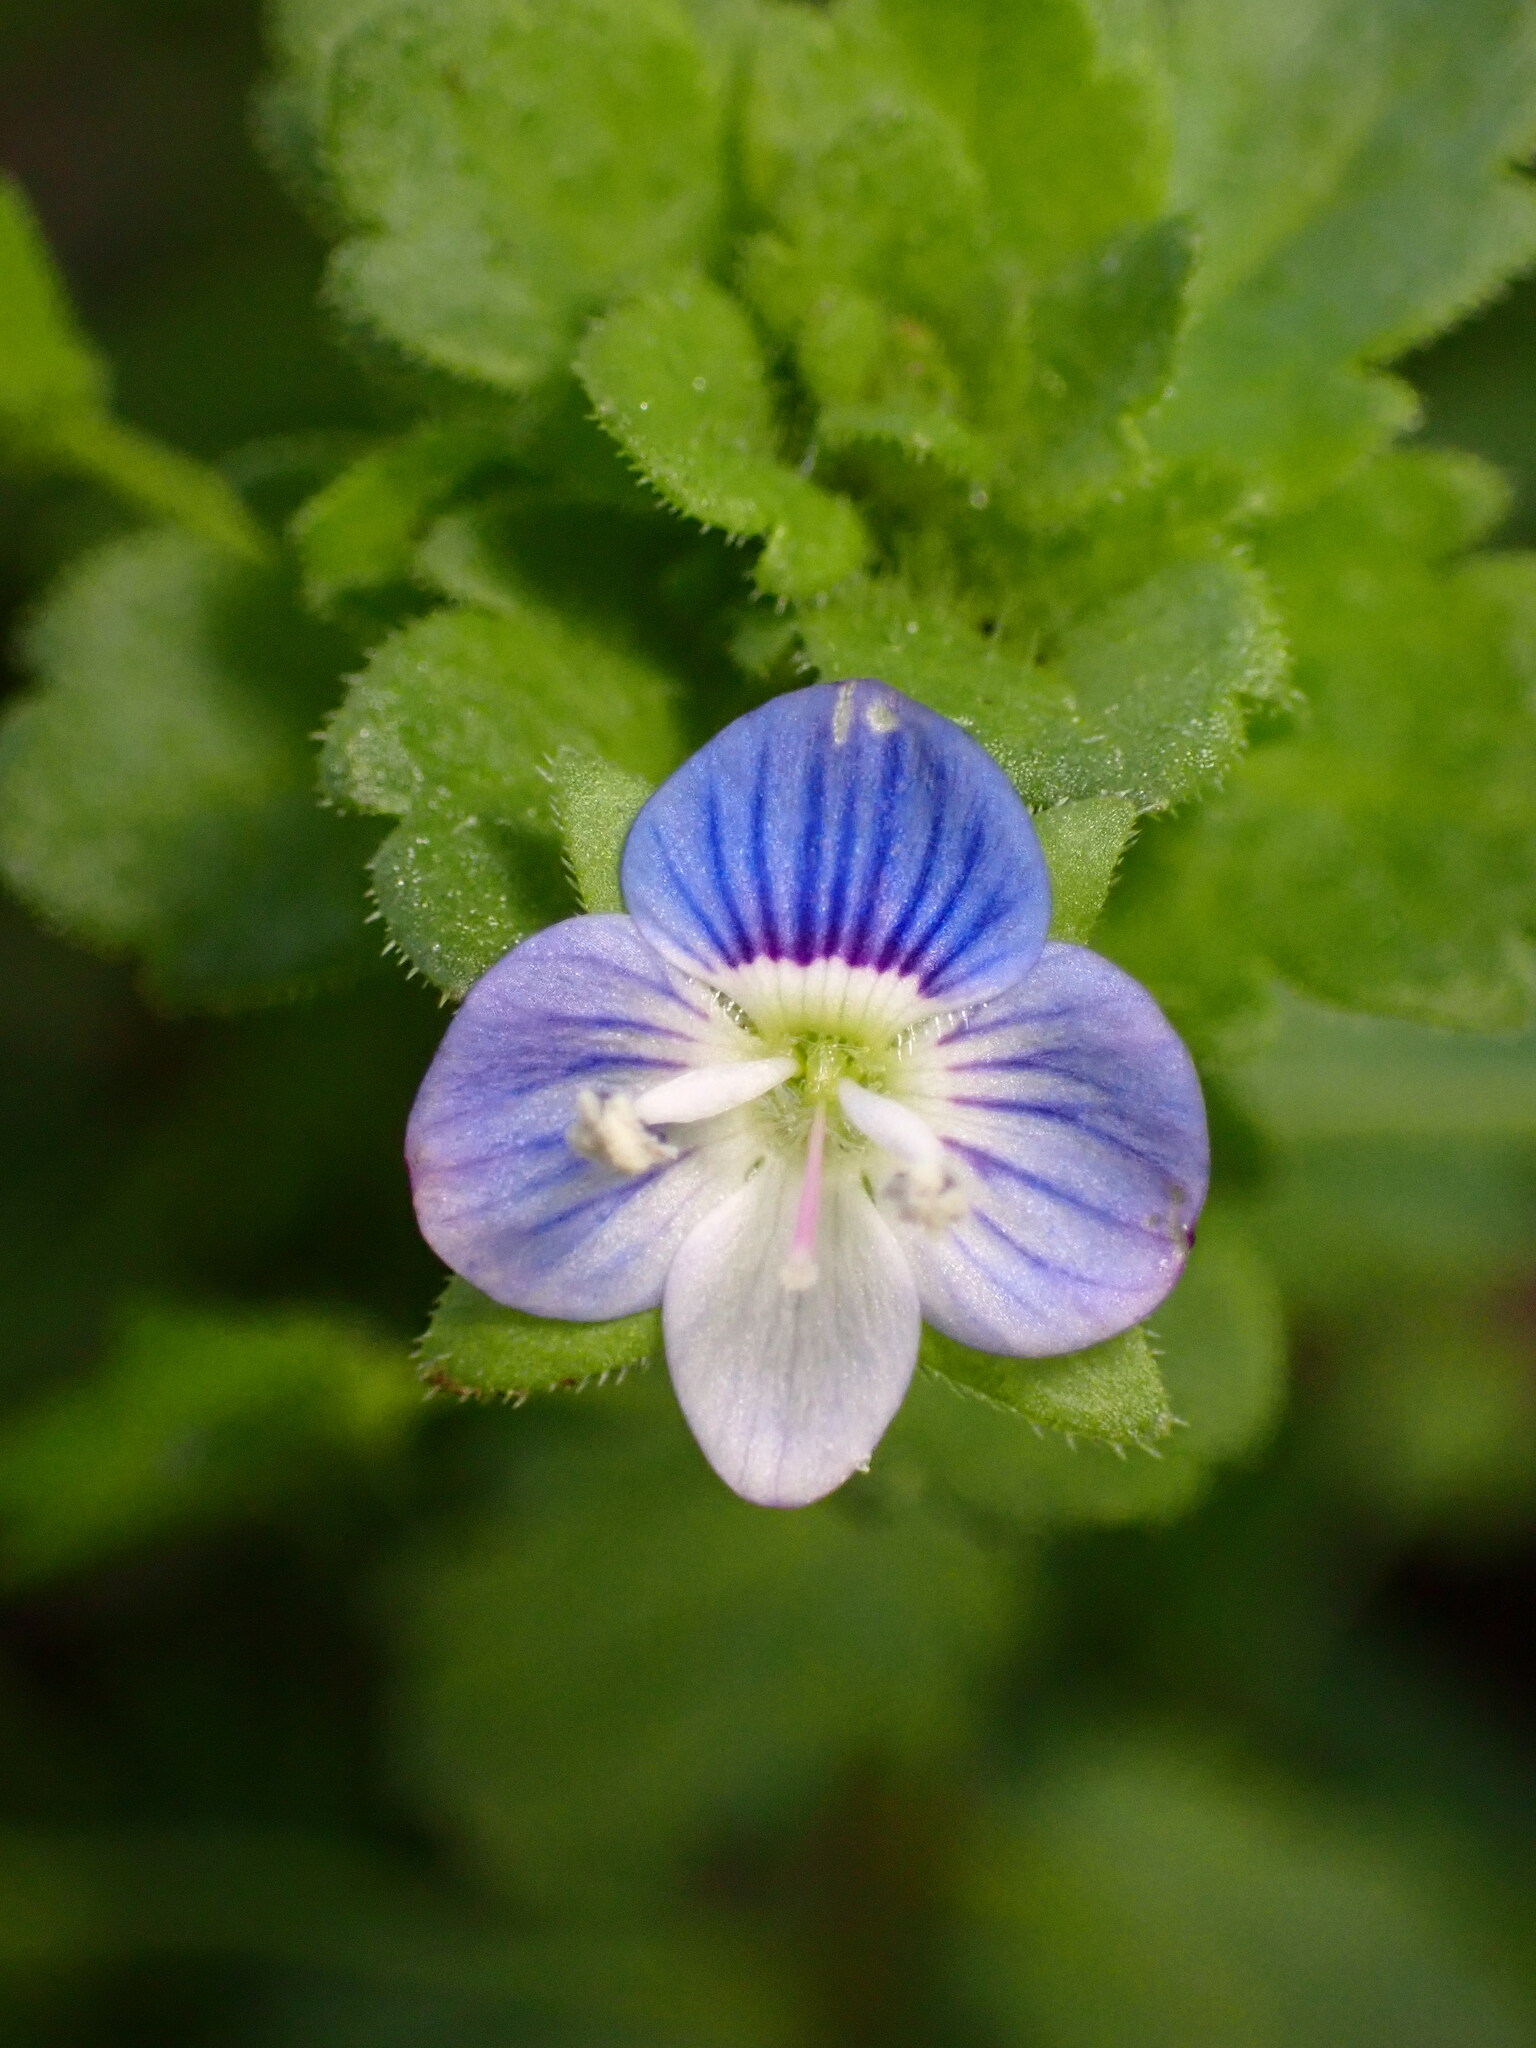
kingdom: Plantae
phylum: Tracheophyta
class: Magnoliopsida
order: Lamiales
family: Plantaginaceae
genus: Veronica
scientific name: Veronica persica
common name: Common field-speedwell
